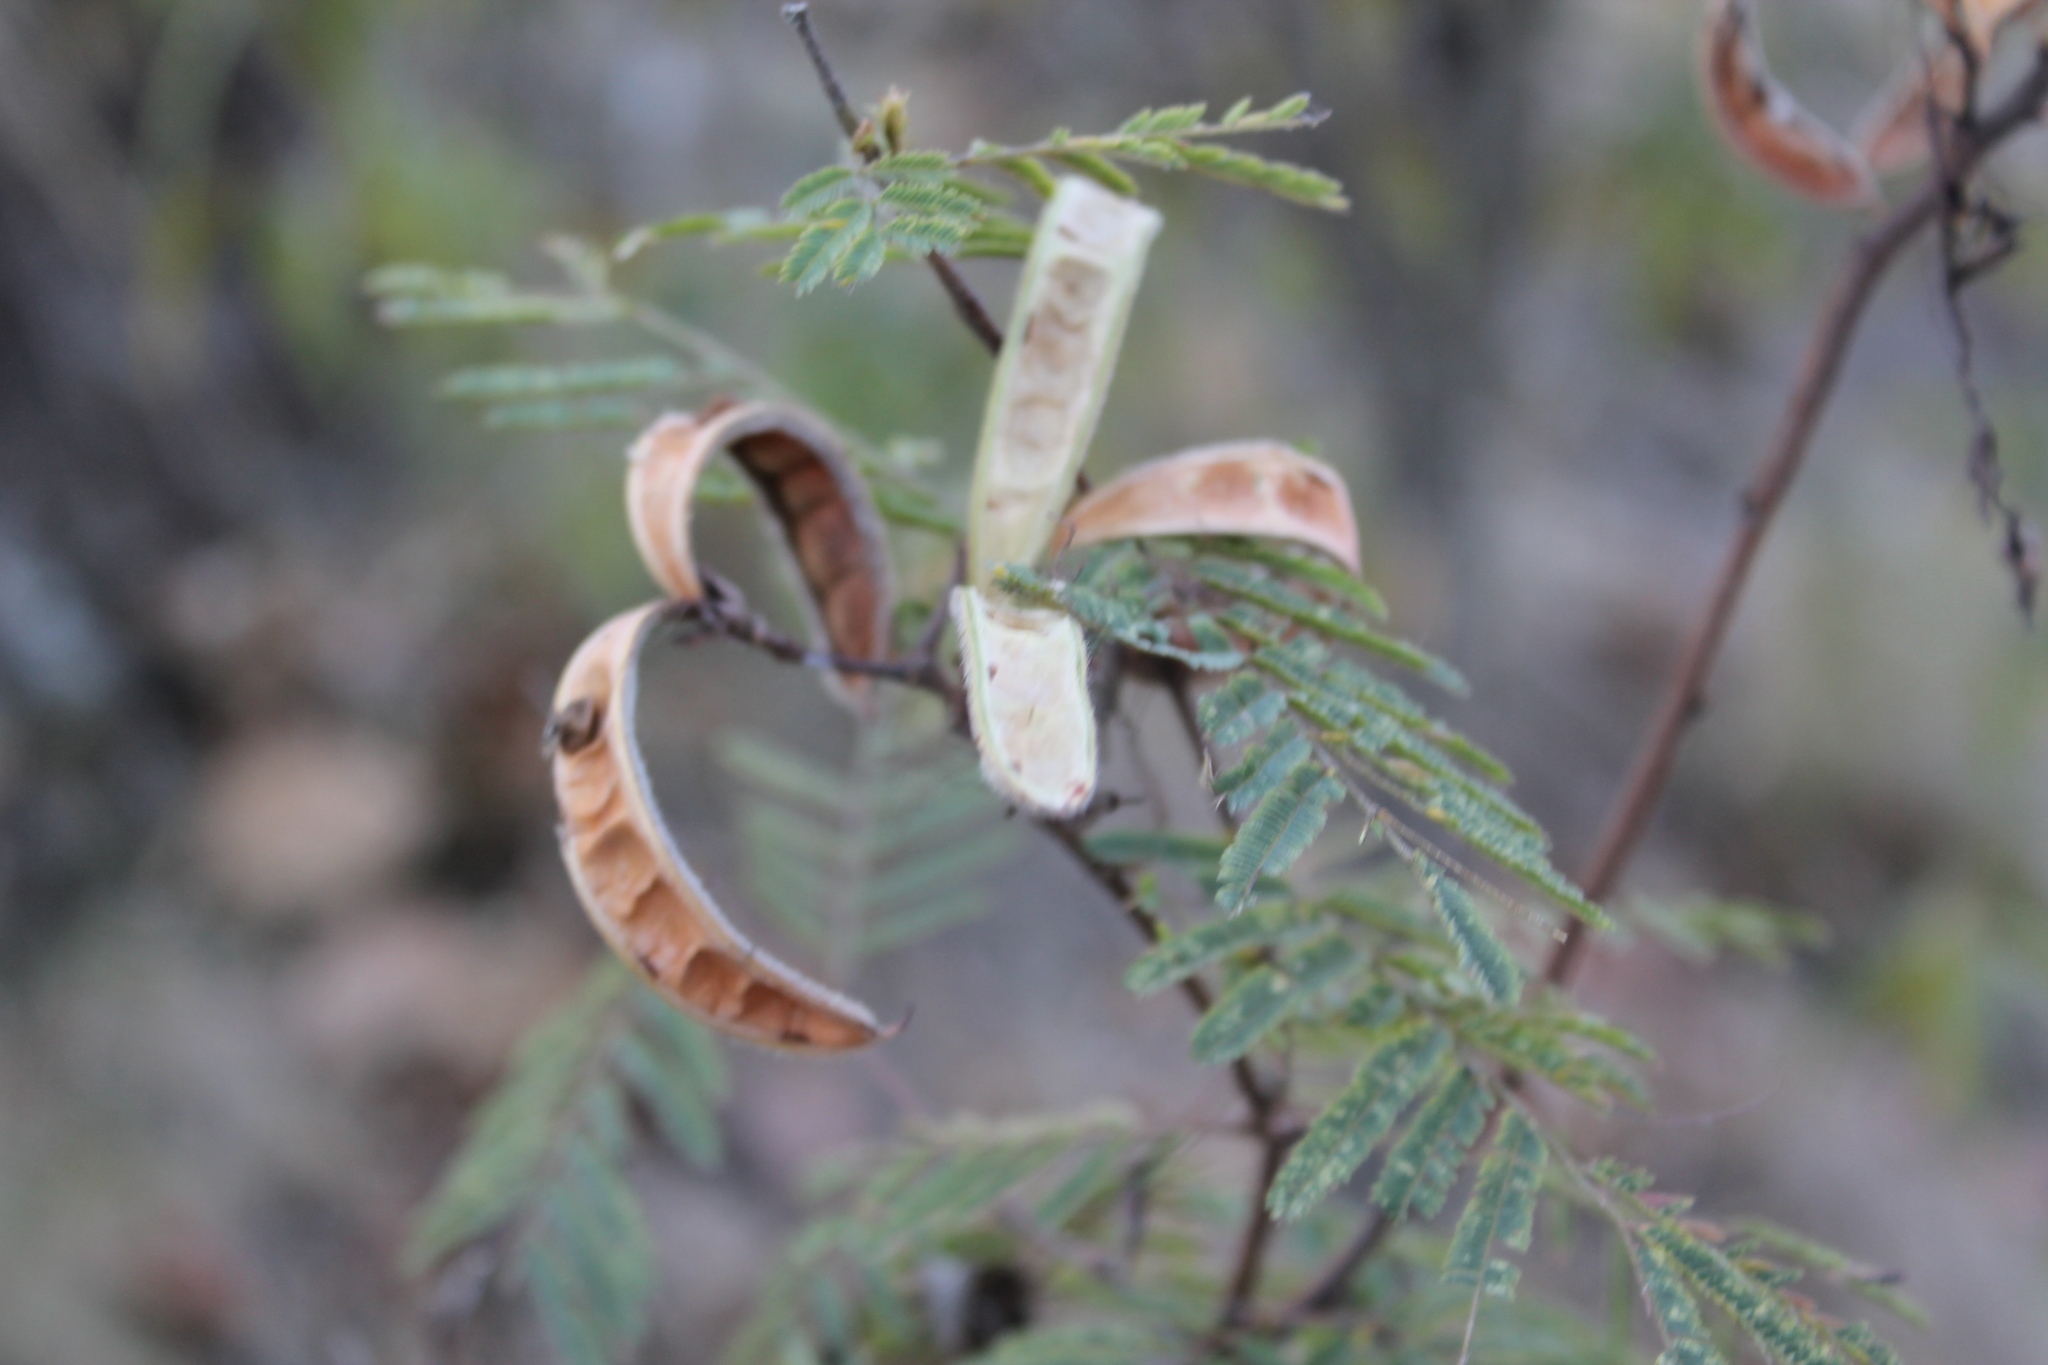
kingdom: Plantae
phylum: Tracheophyta
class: Magnoliopsida
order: Fabales
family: Fabaceae
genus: Calliandra
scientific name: Calliandra hirsuta
